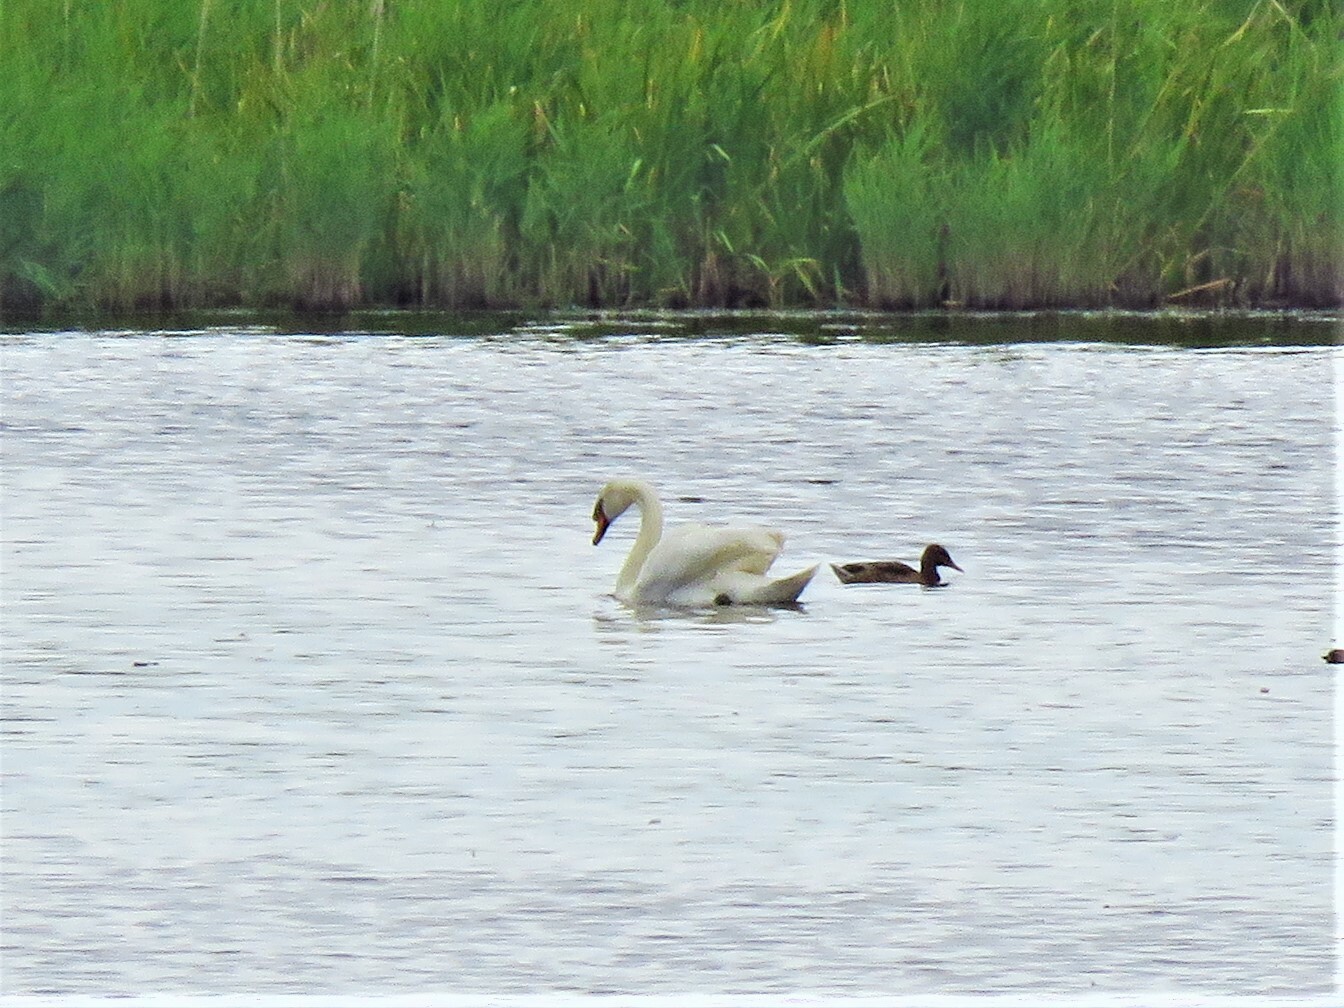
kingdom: Animalia
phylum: Chordata
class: Aves
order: Anseriformes
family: Anatidae
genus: Cygnus
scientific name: Cygnus olor
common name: Mute swan
